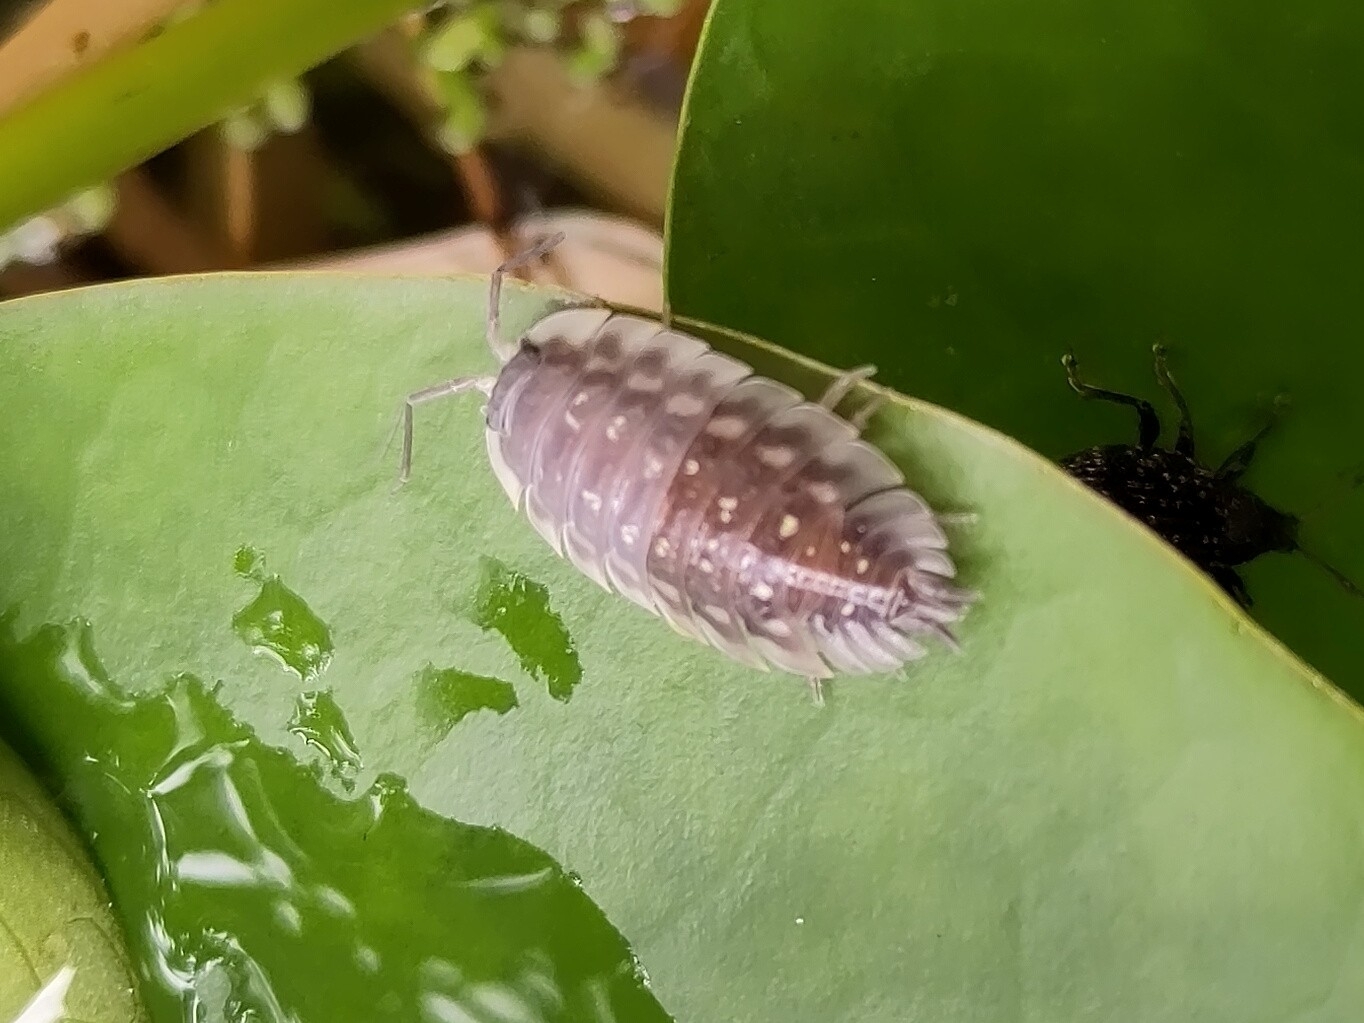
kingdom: Animalia
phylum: Arthropoda
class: Malacostraca
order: Isopoda
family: Oniscidae
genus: Oniscus
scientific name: Oniscus asellus
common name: Common shiny woodlouse
